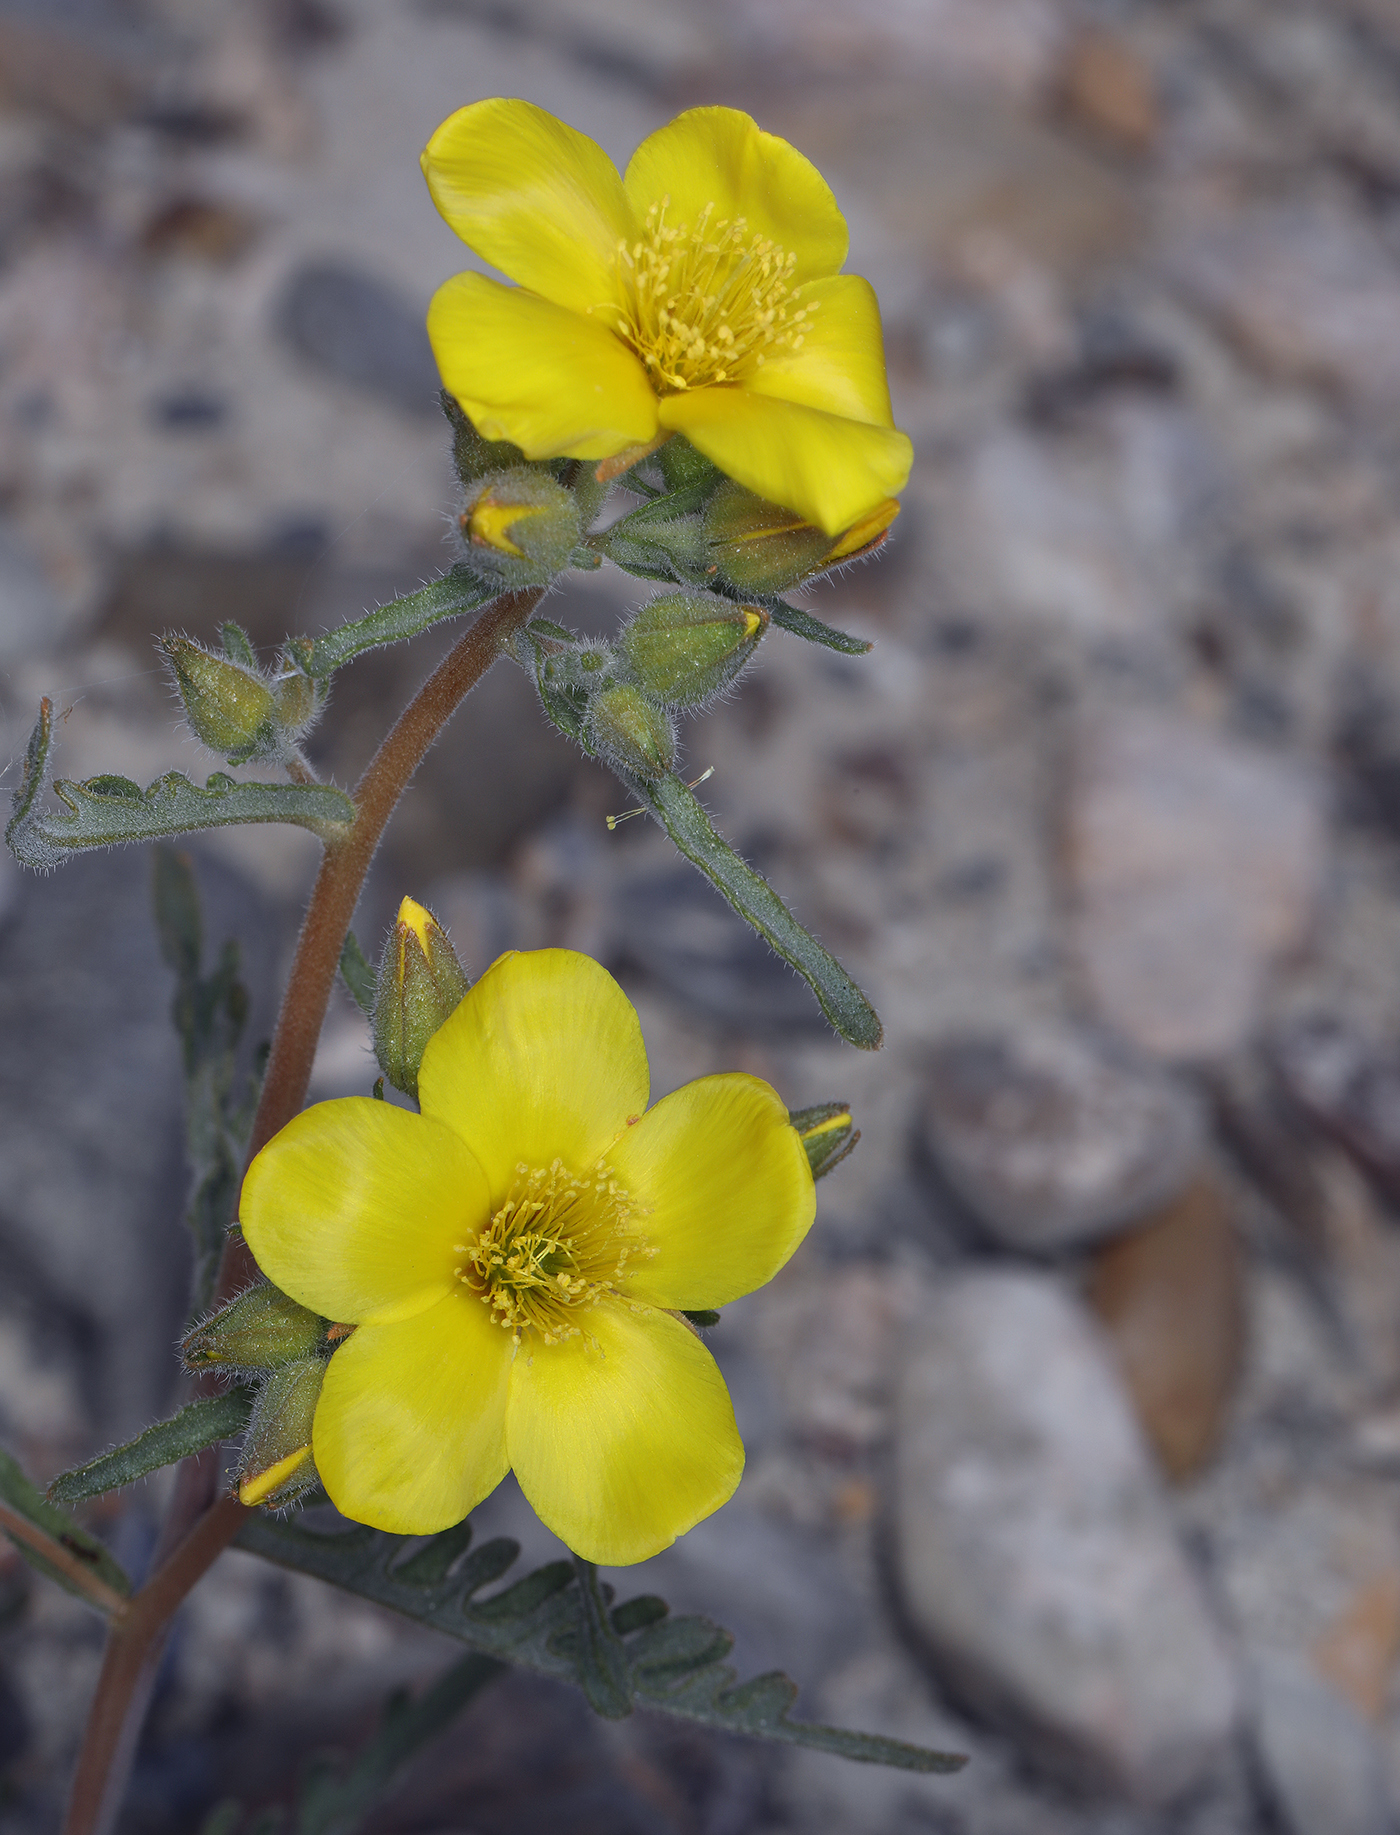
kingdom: Plantae
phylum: Tracheophyta
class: Magnoliopsida
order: Cornales
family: Loasaceae
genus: Mentzelia
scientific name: Mentzelia nitens
